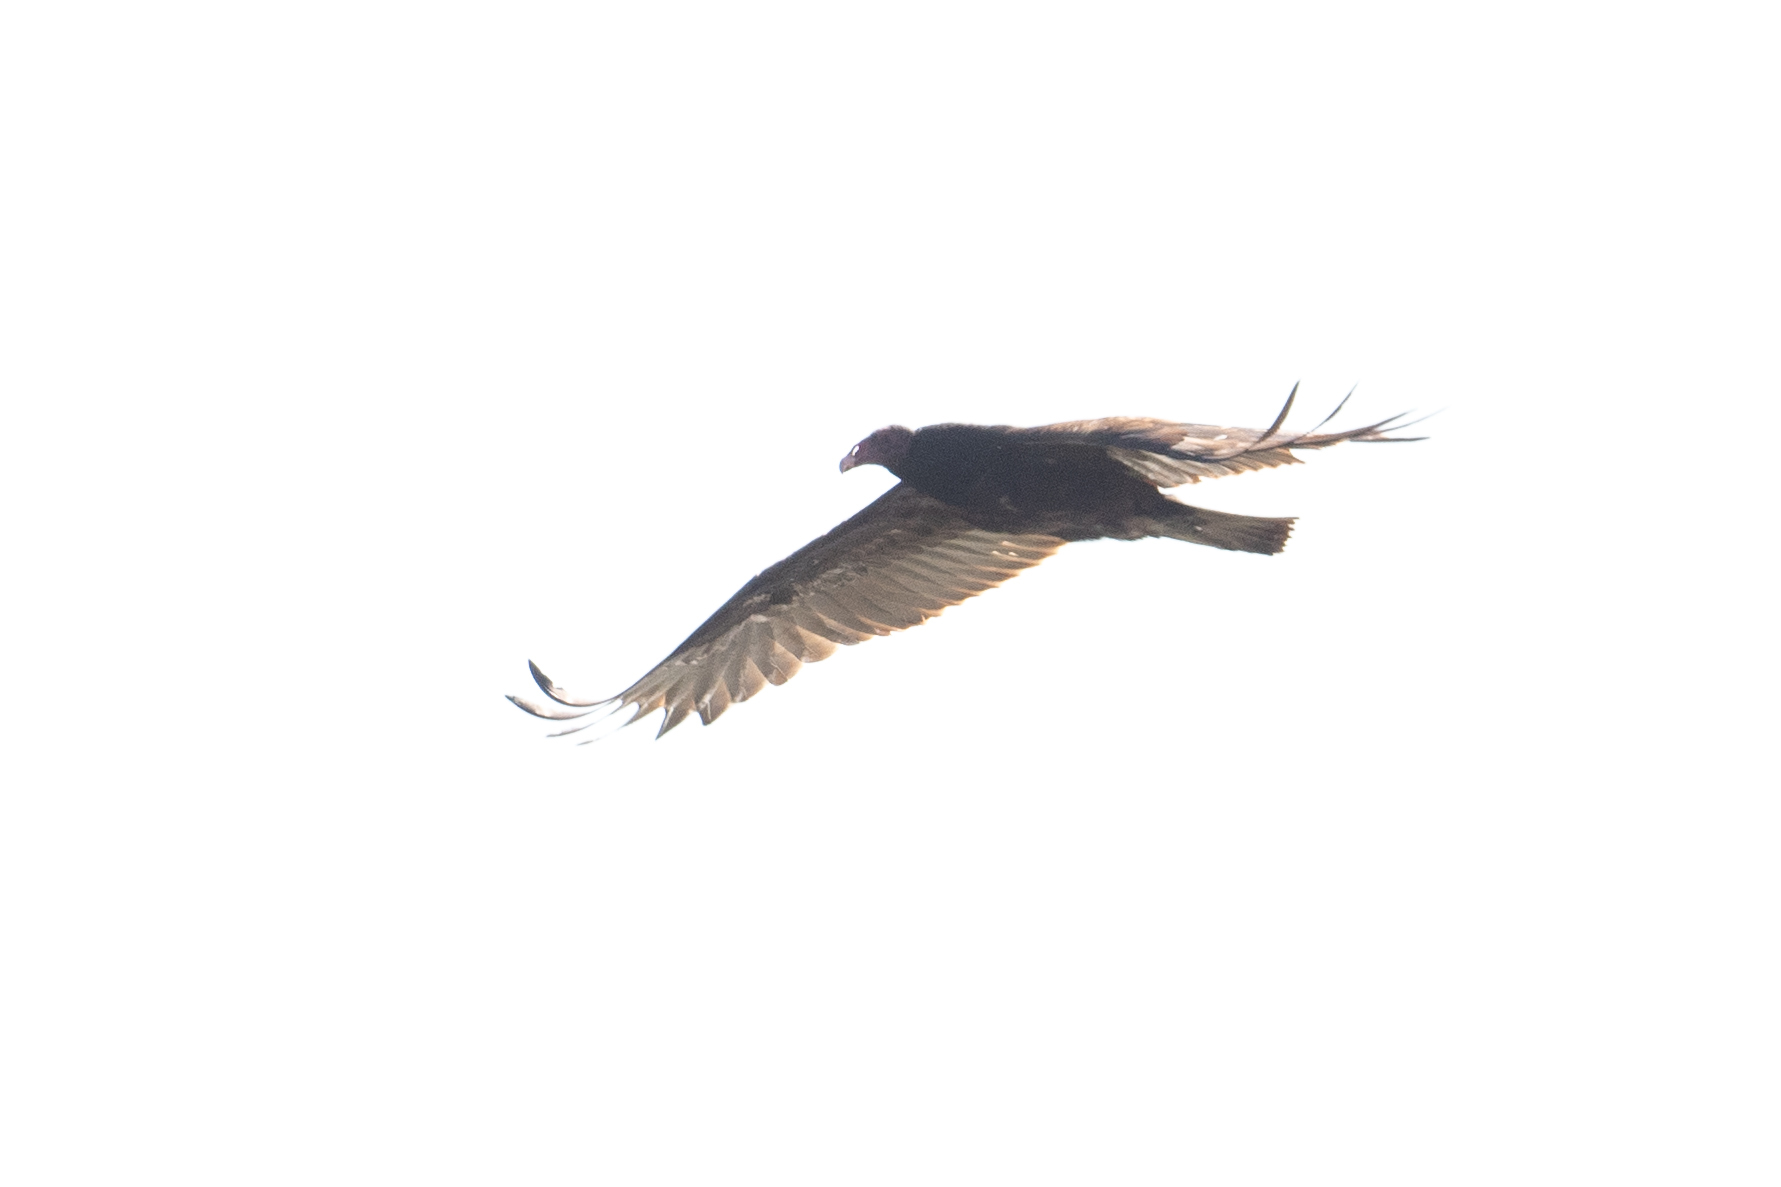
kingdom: Animalia
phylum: Chordata
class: Aves
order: Accipitriformes
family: Cathartidae
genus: Cathartes
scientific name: Cathartes aura
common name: Turkey vulture
